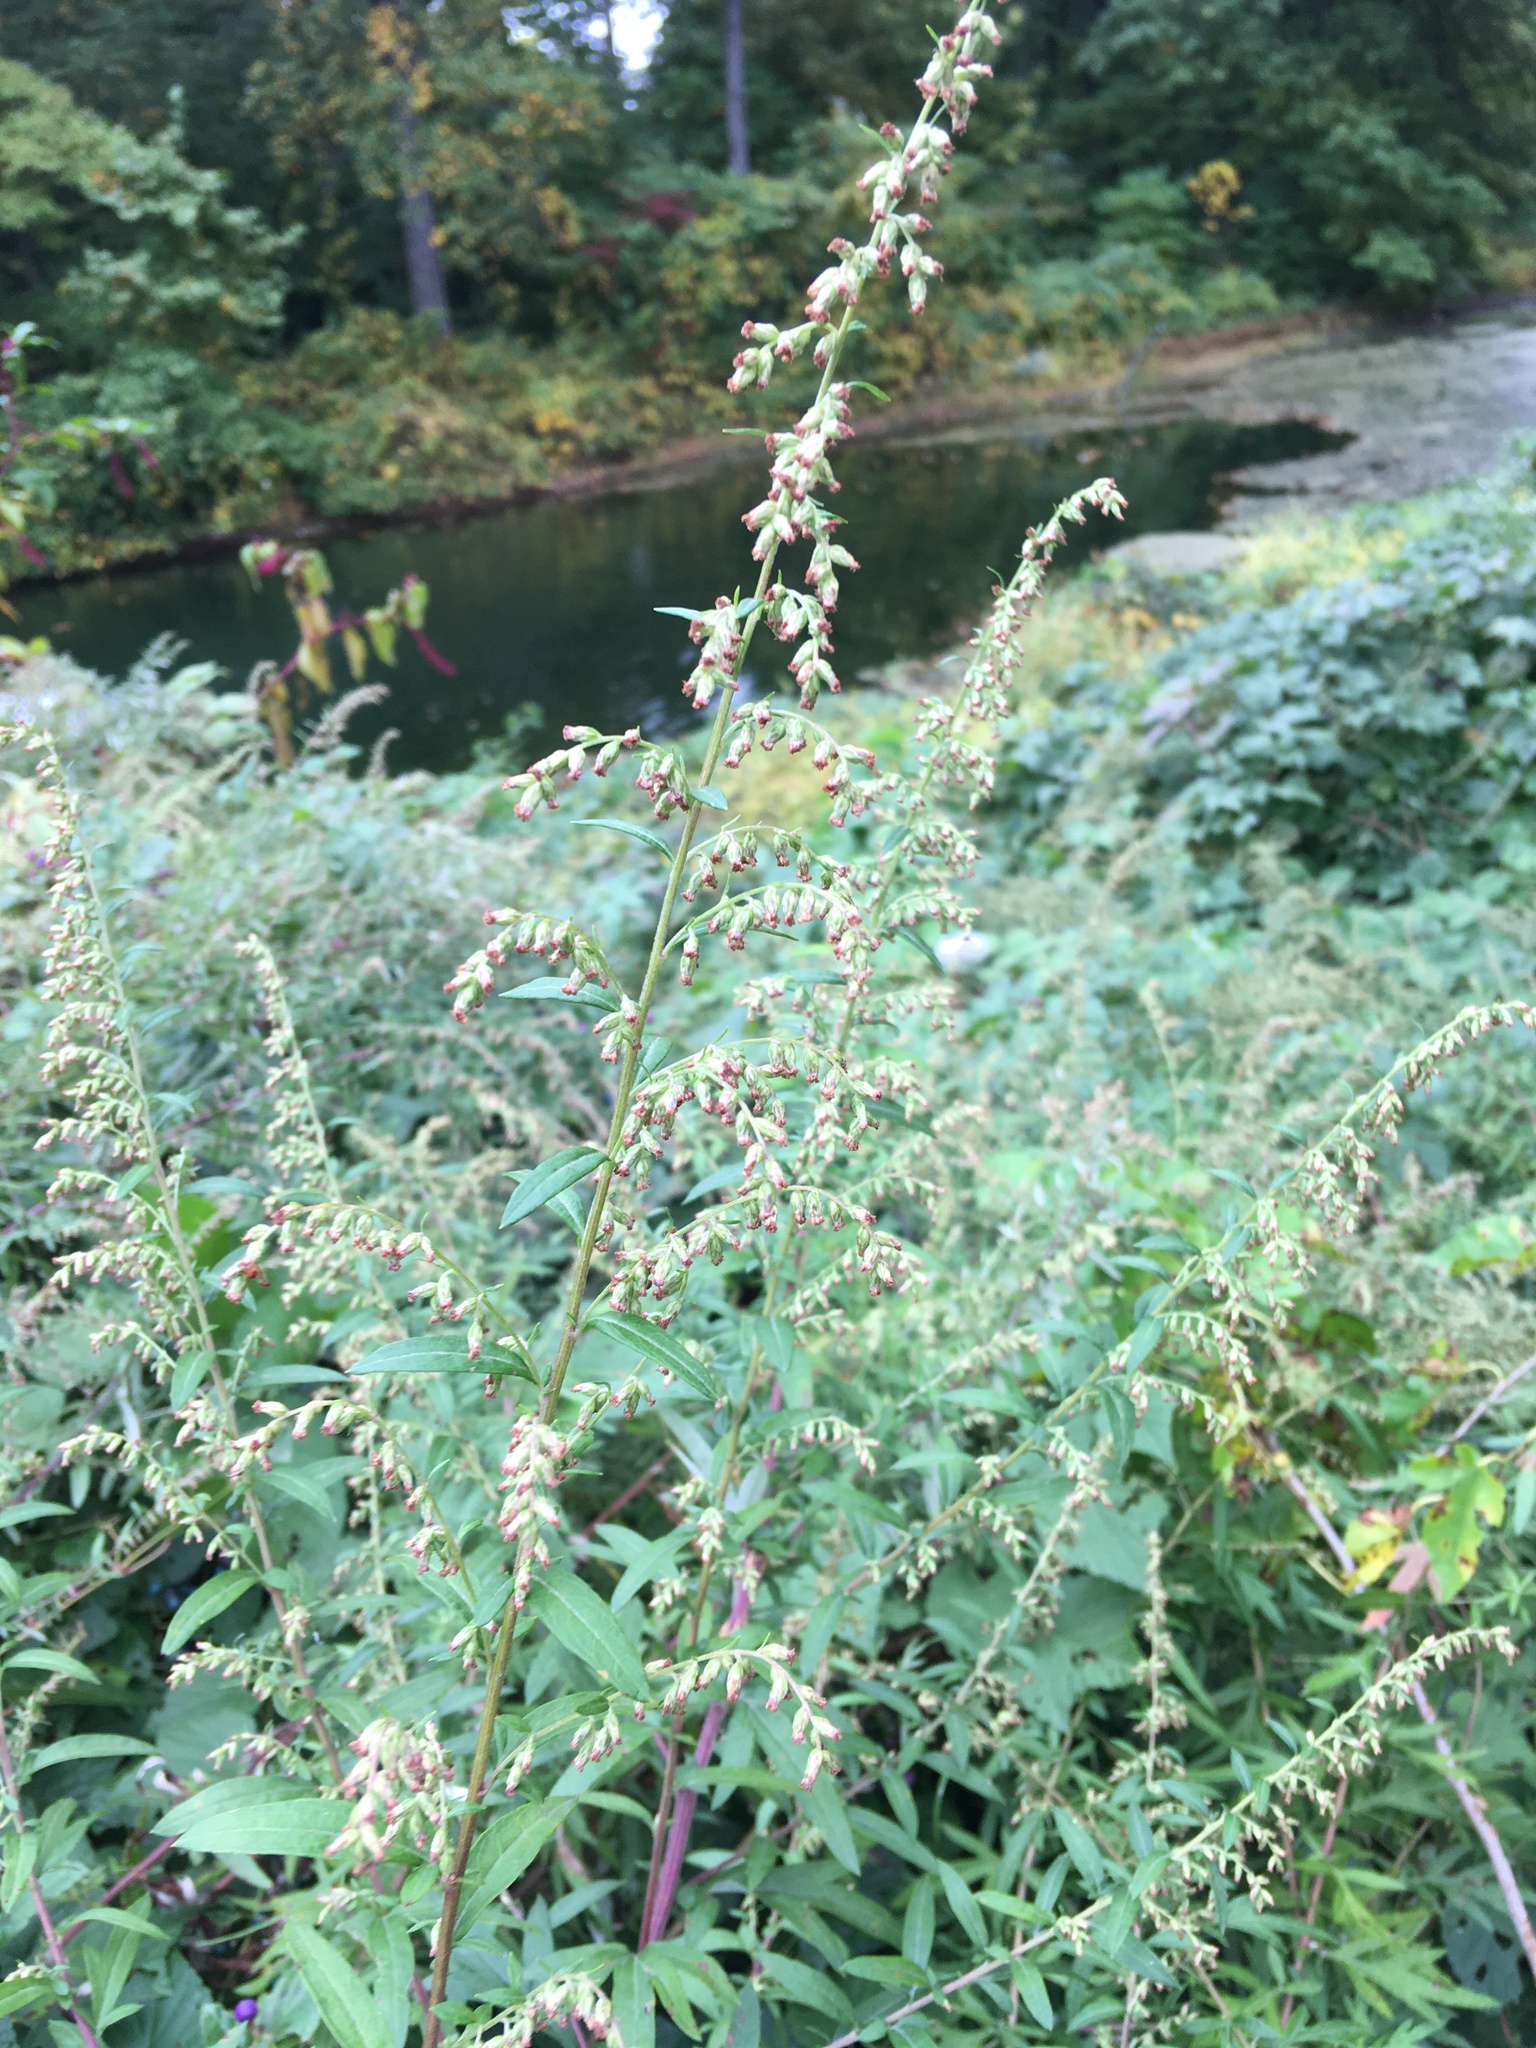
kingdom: Plantae
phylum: Tracheophyta
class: Magnoliopsida
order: Asterales
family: Asteraceae
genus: Artemisia
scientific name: Artemisia vulgaris
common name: Mugwort
